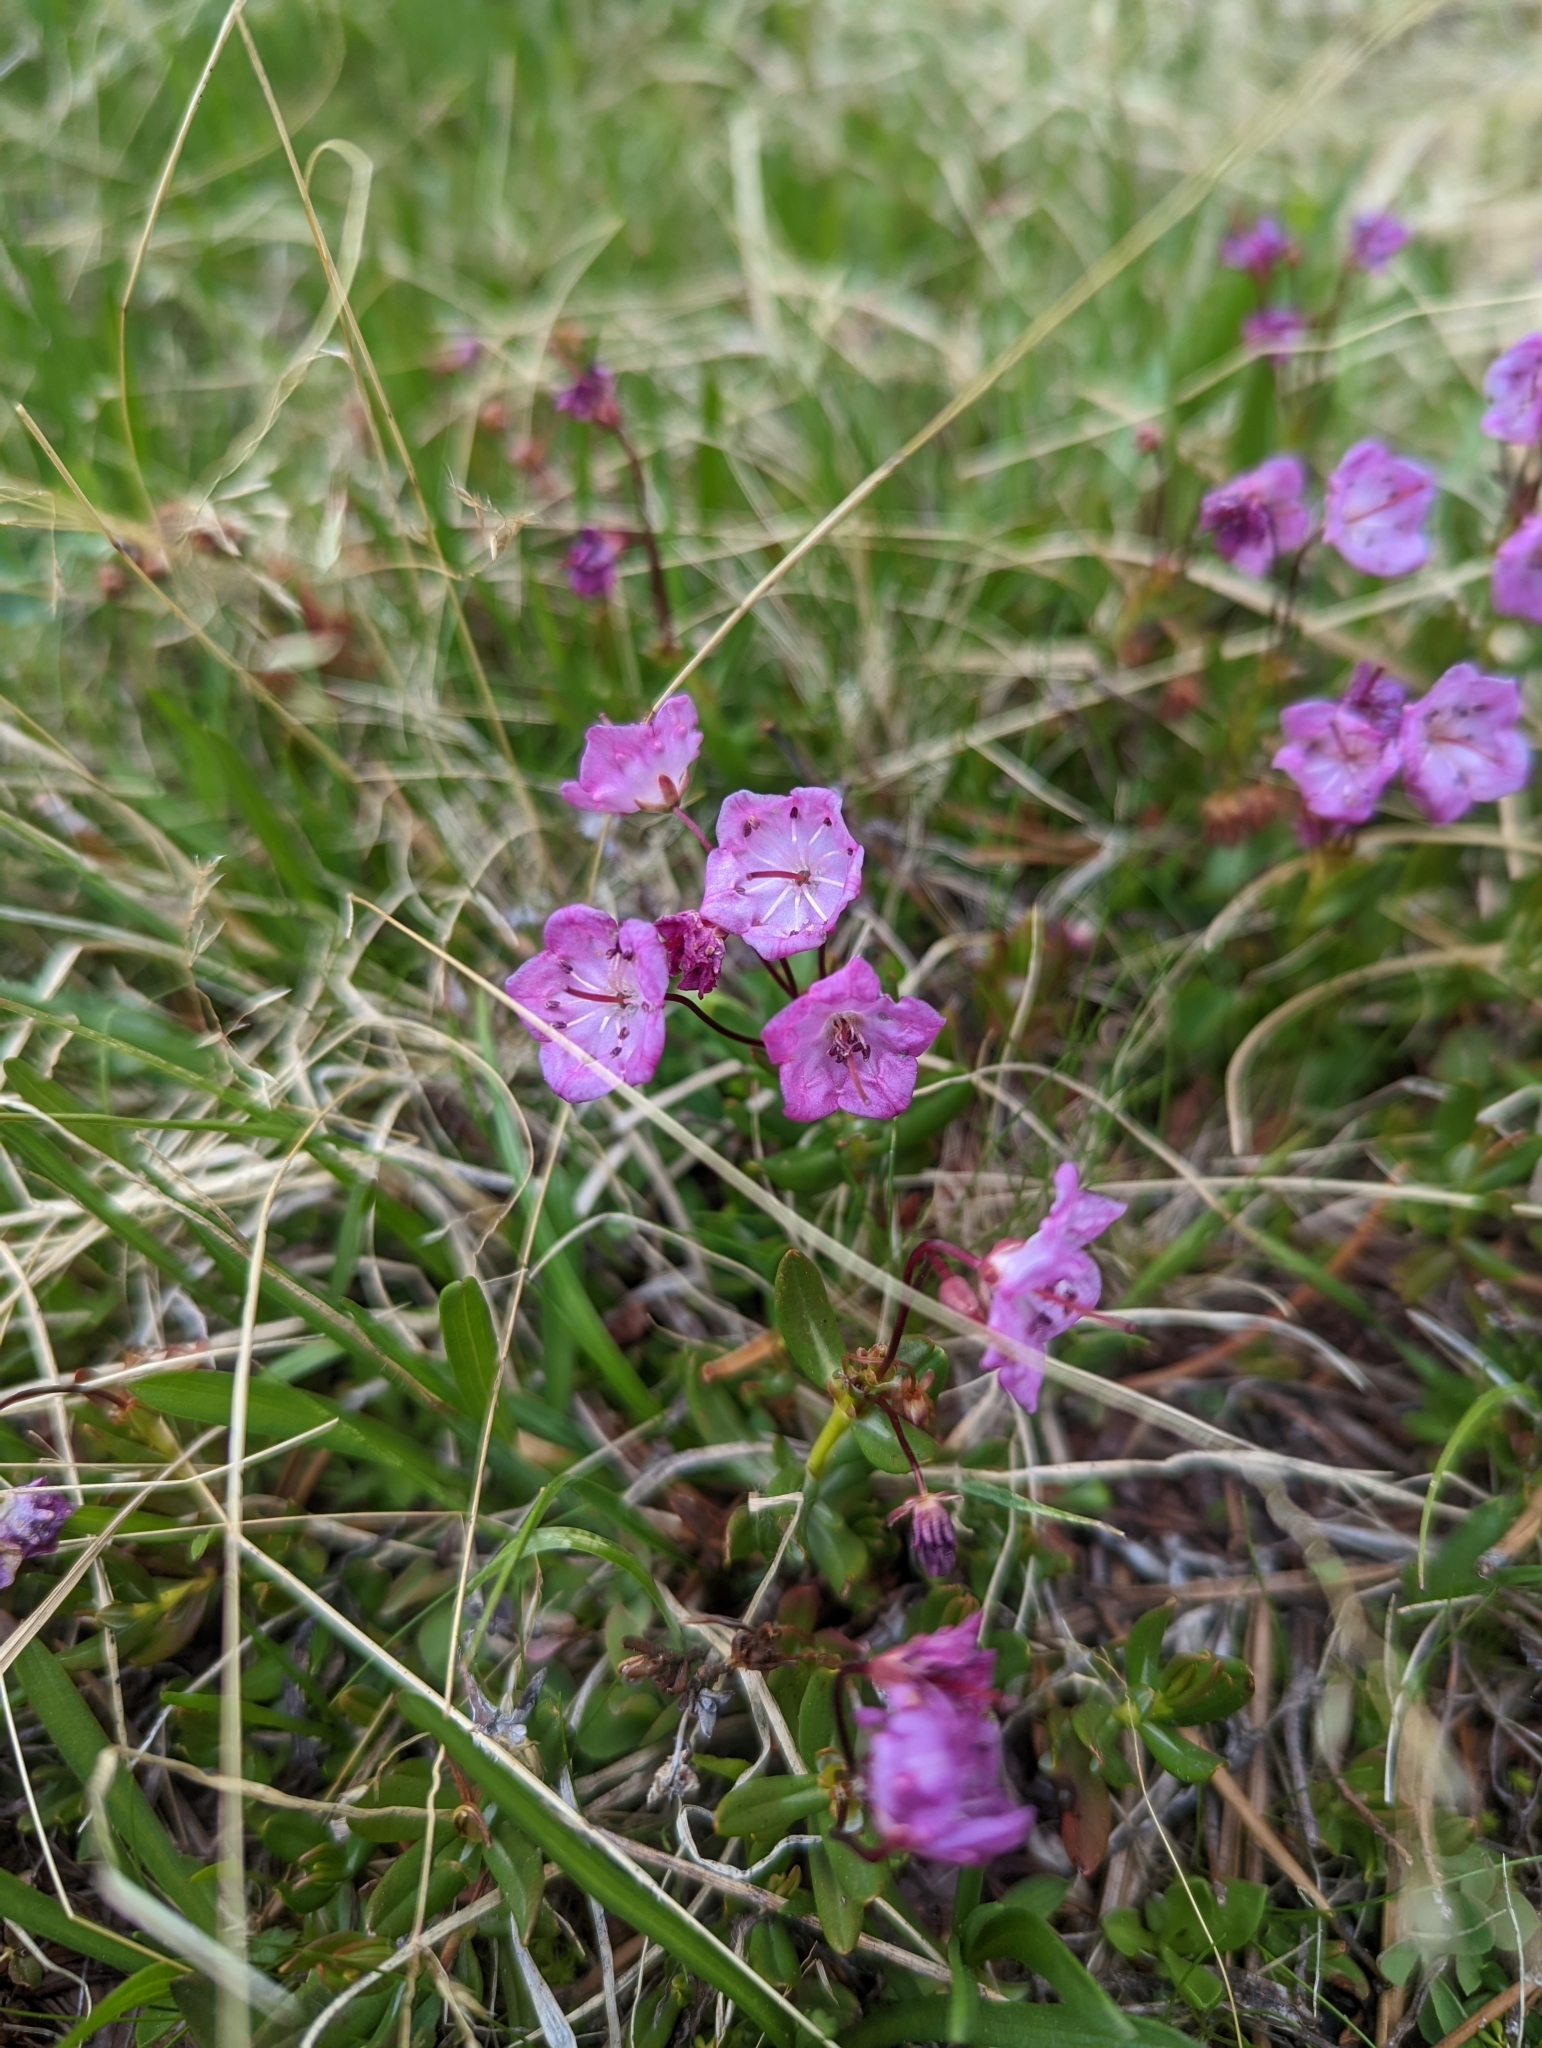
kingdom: Plantae
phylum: Tracheophyta
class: Magnoliopsida
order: Ericales
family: Ericaceae
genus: Kalmia
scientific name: Kalmia microphylla
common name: Alpine bog laurel
